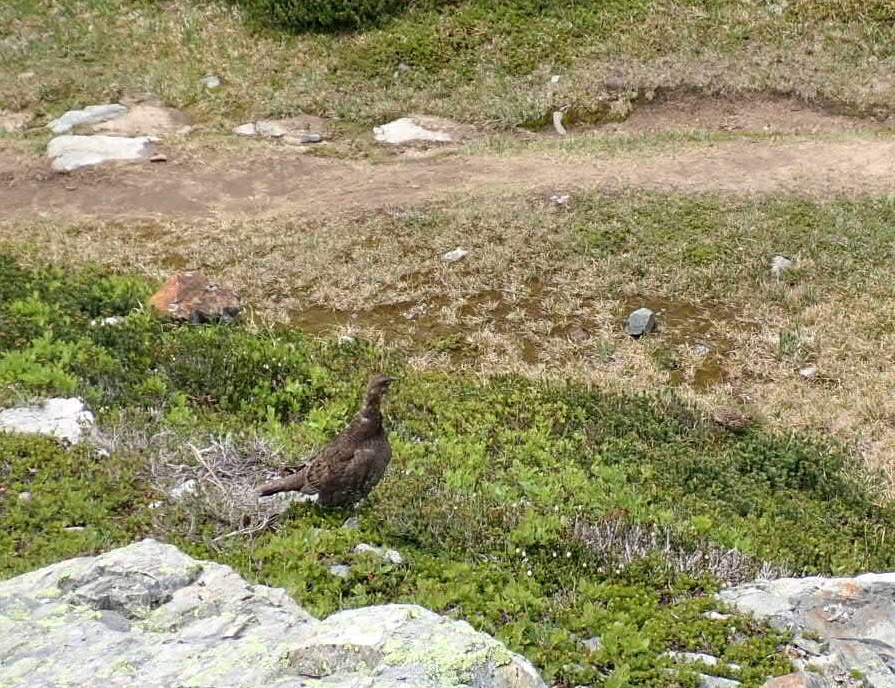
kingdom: Animalia
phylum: Chordata
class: Aves
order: Galliformes
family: Phasianidae
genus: Dendragapus
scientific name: Dendragapus fuliginosus
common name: Sooty grouse
